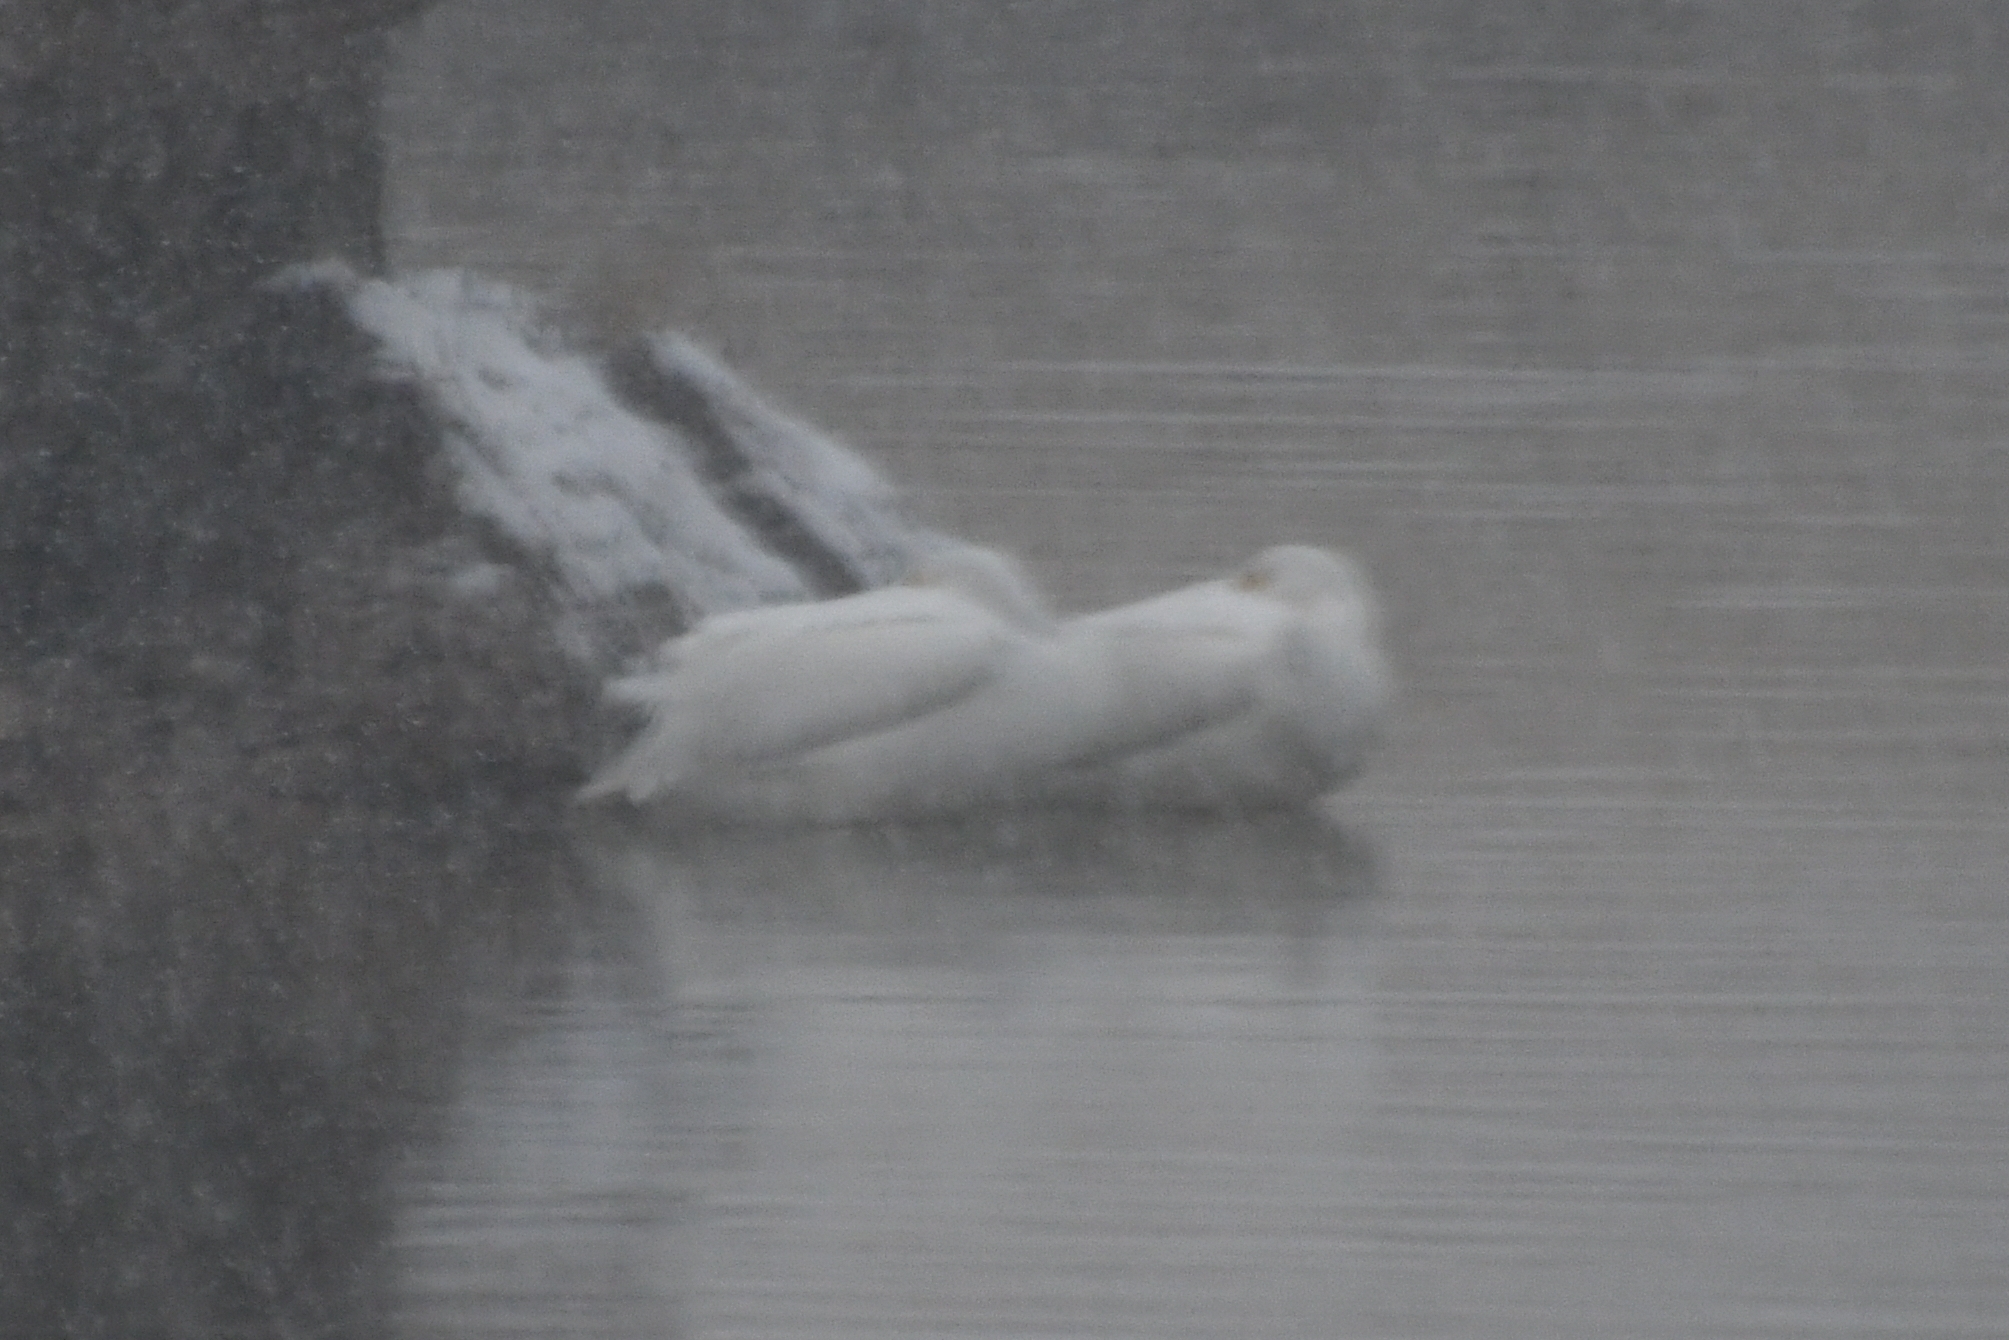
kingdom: Animalia
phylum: Chordata
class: Aves
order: Pelecaniformes
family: Pelecanidae
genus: Pelecanus
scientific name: Pelecanus erythrorhynchos
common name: American white pelican
